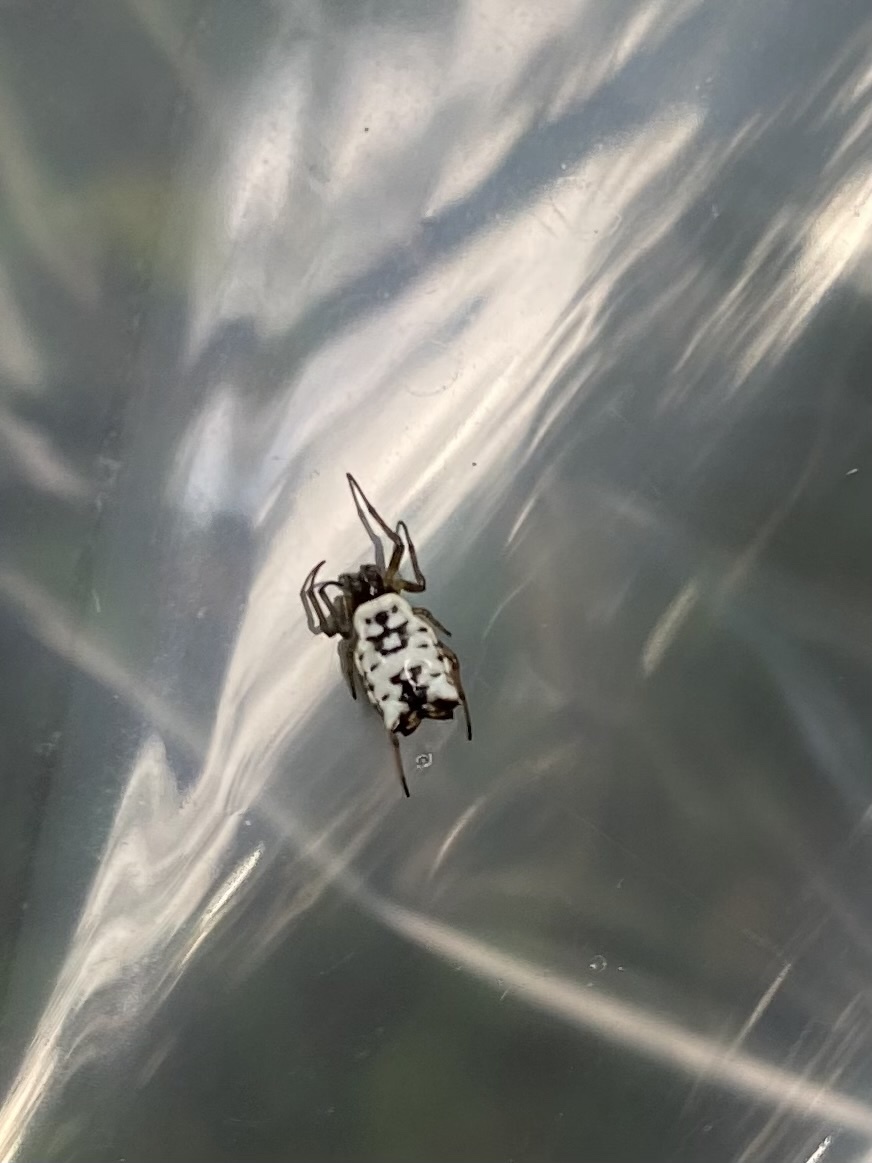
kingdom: Animalia
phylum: Arthropoda
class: Arachnida
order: Araneae
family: Araneidae
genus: Micrathena
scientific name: Micrathena mitrata
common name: Orb weavers
